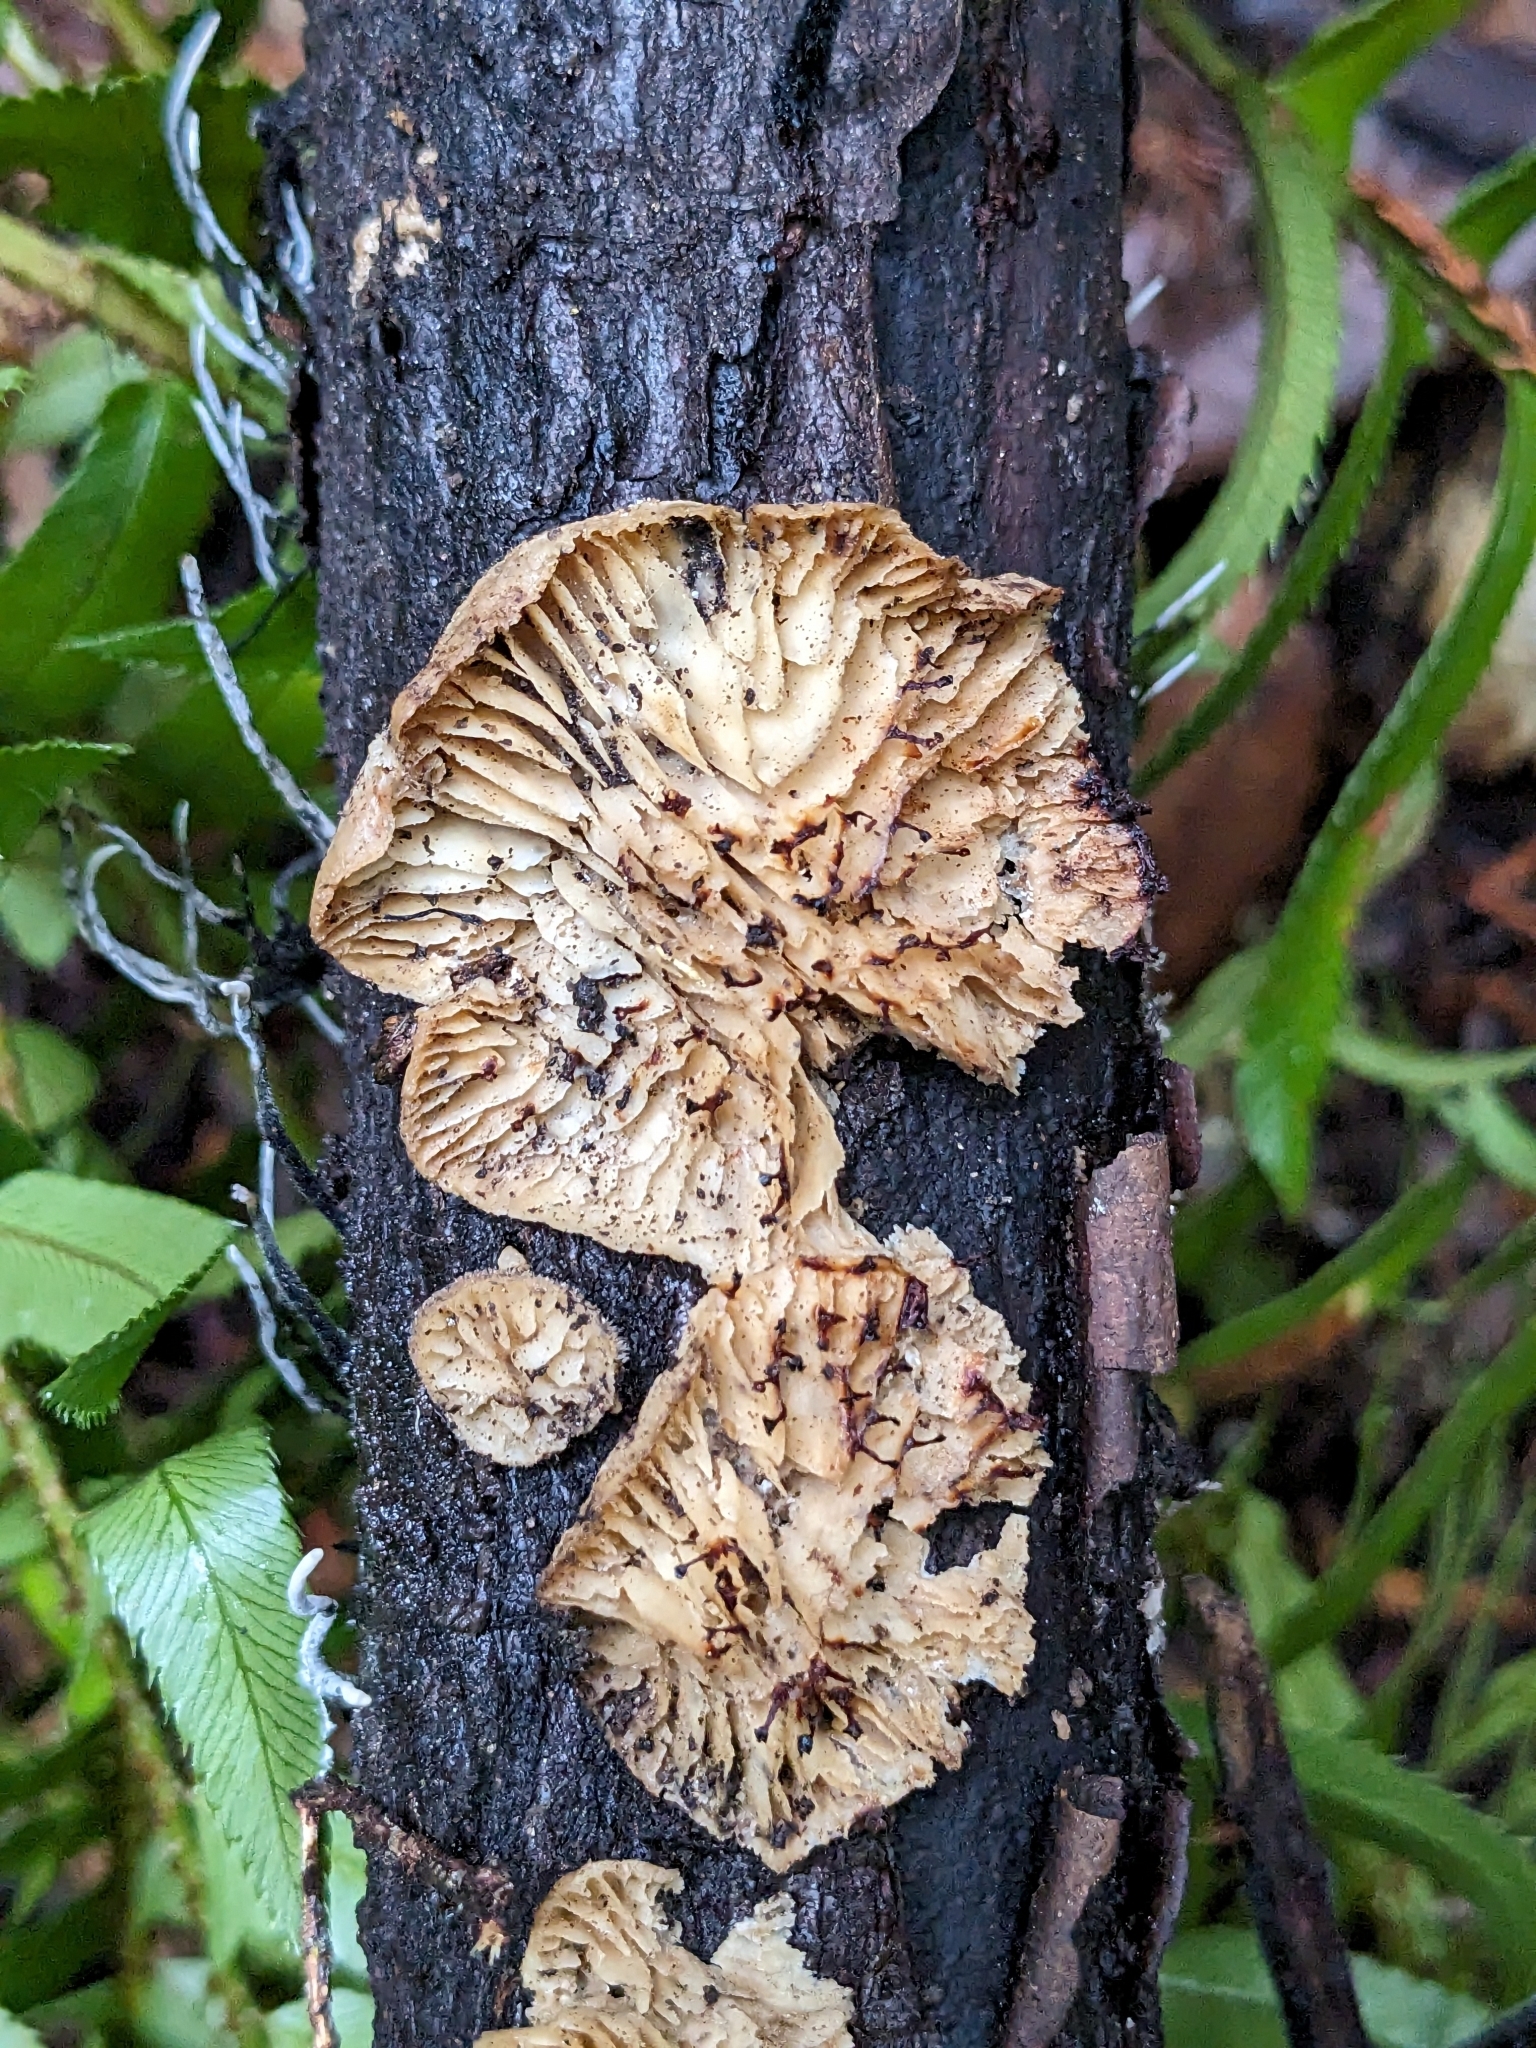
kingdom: Fungi
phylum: Basidiomycota
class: Agaricomycetes
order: Polyporales
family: Polyporaceae
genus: Lenzites
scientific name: Lenzites betulinus
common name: Birch mazegill
